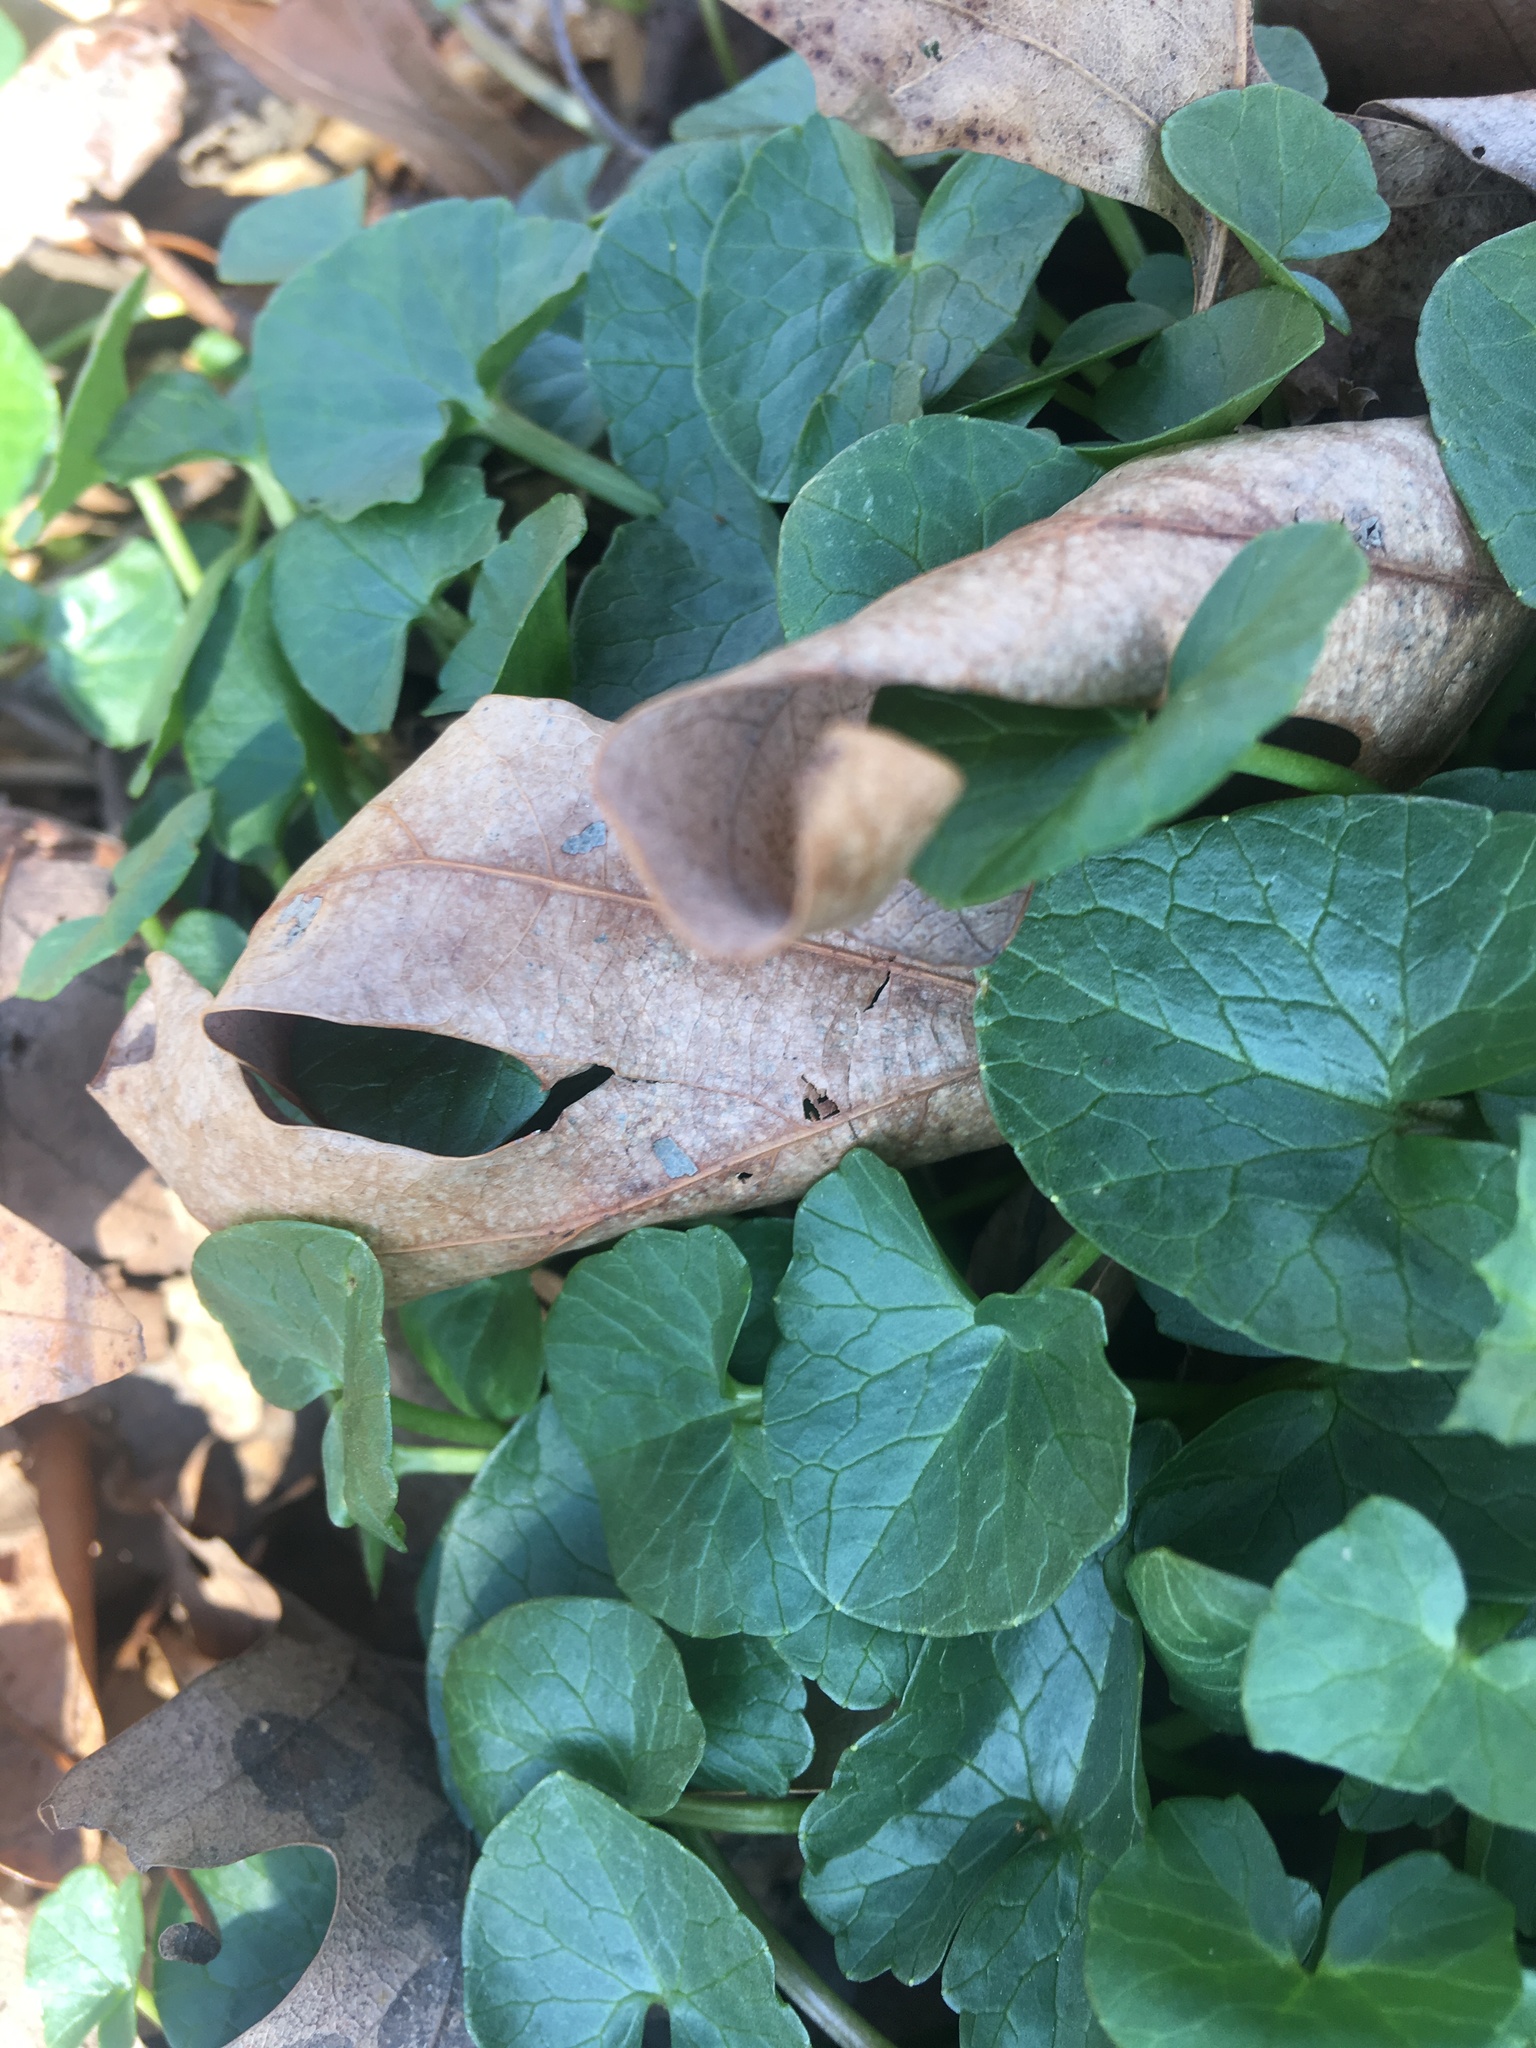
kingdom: Plantae
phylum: Tracheophyta
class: Magnoliopsida
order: Ranunculales
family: Ranunculaceae
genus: Ficaria
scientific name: Ficaria verna
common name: Lesser celandine
